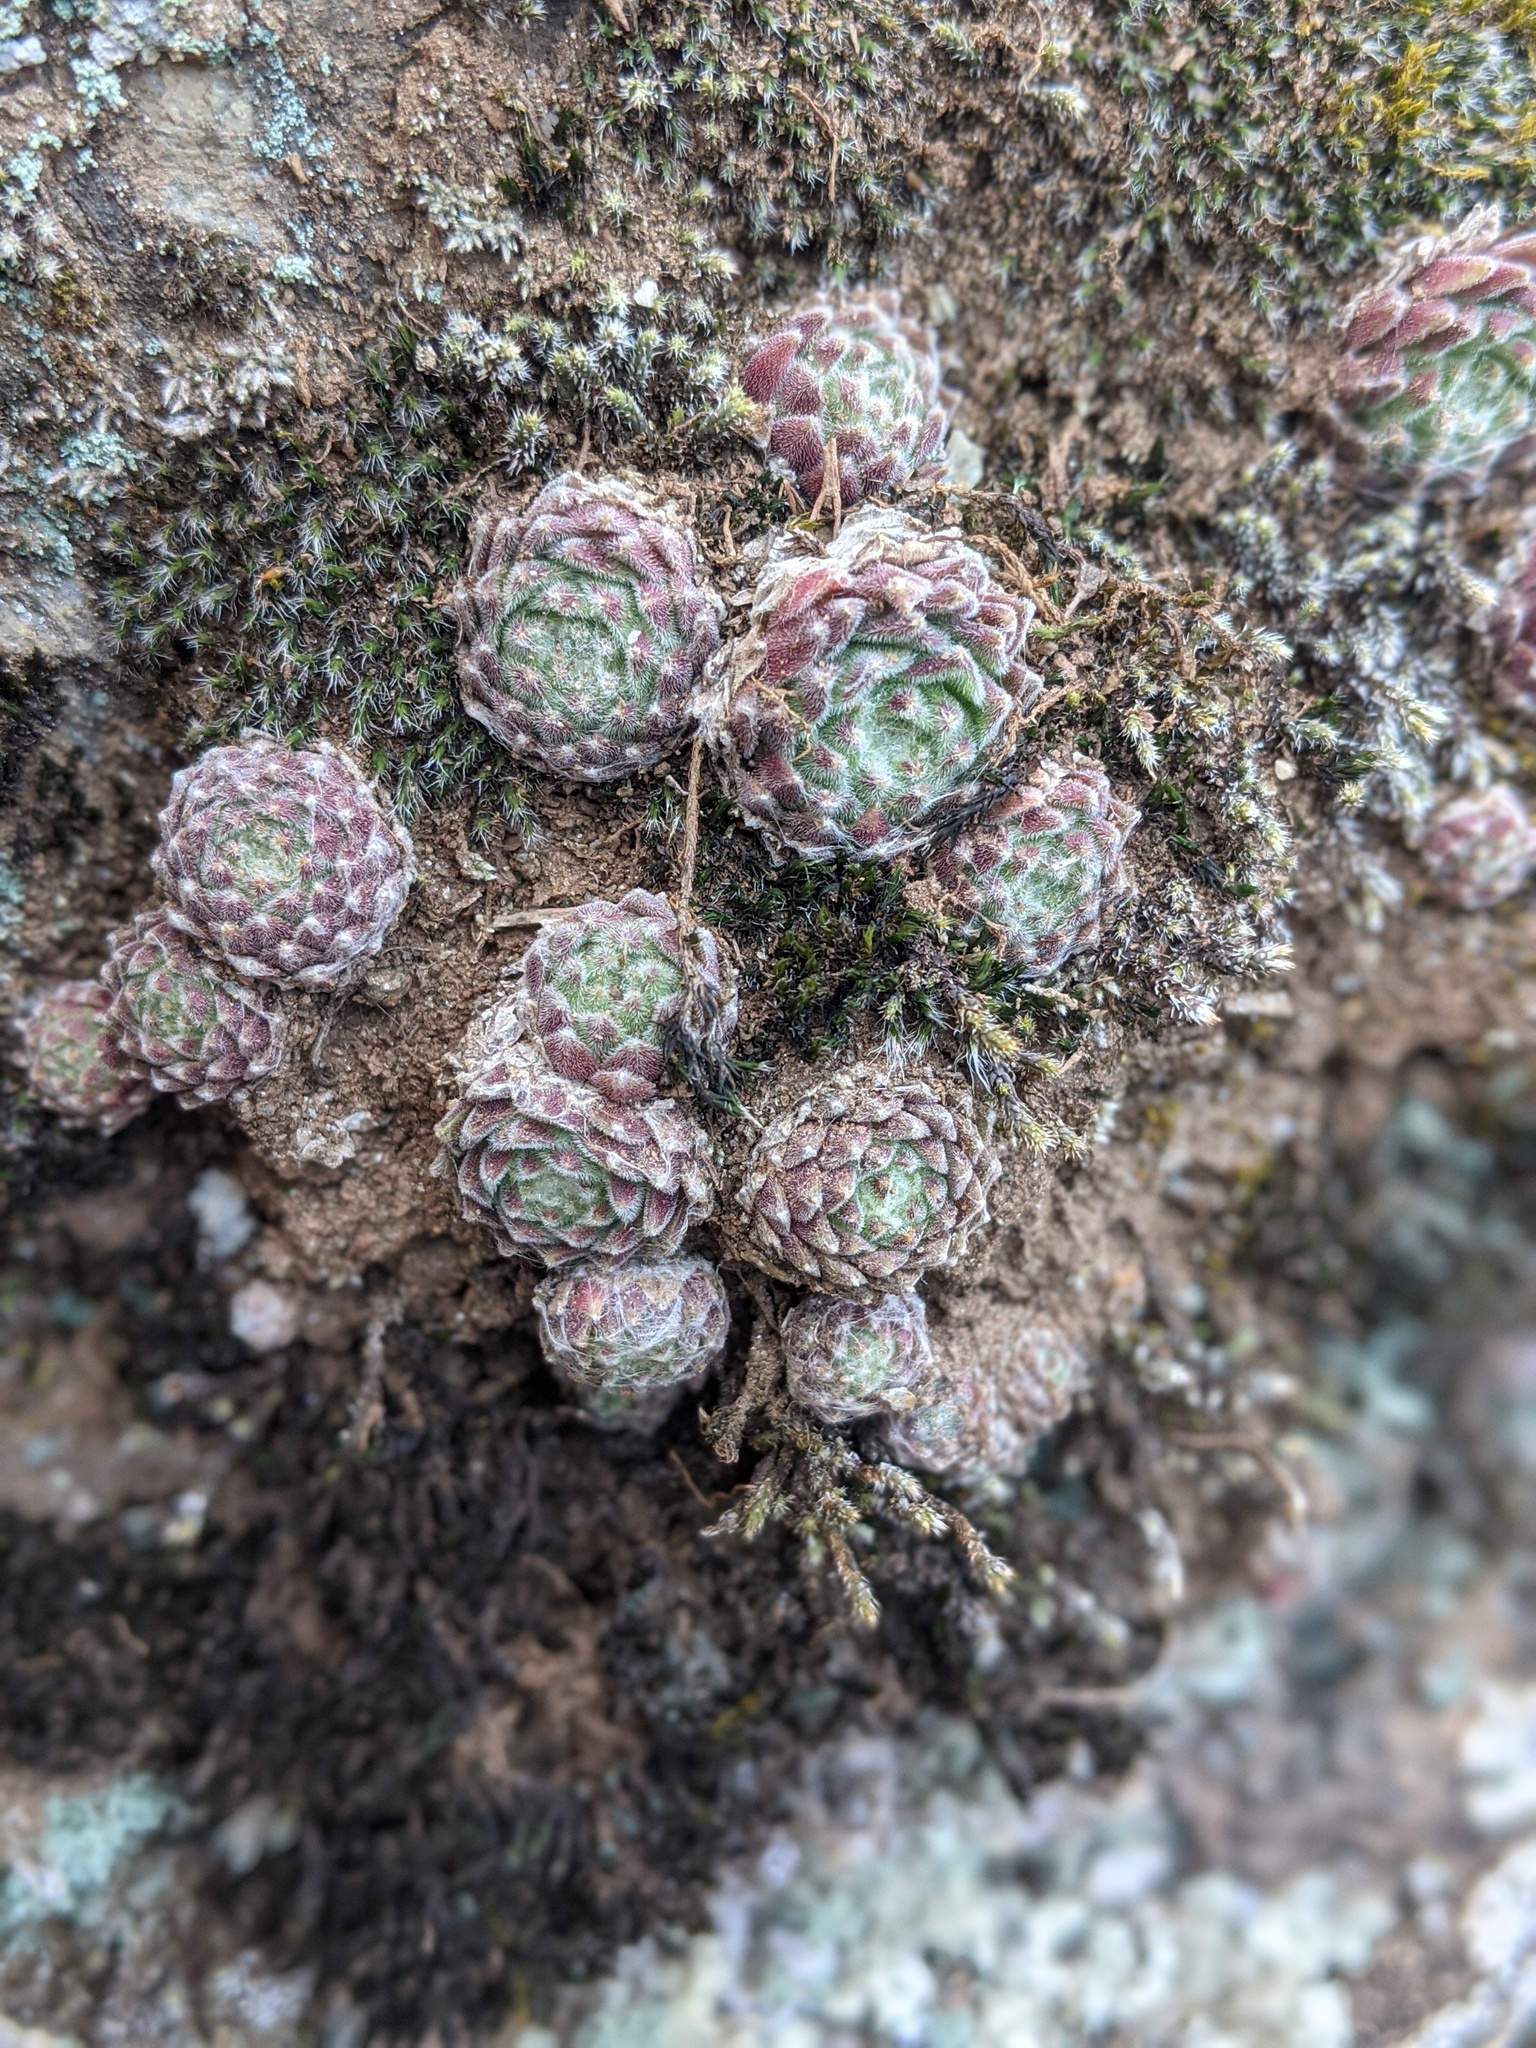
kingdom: Plantae
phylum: Tracheophyta
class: Magnoliopsida
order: Saxifragales
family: Crassulaceae
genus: Sempervivum
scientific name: Sempervivum arachnoideum
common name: Cobweb house-leek
